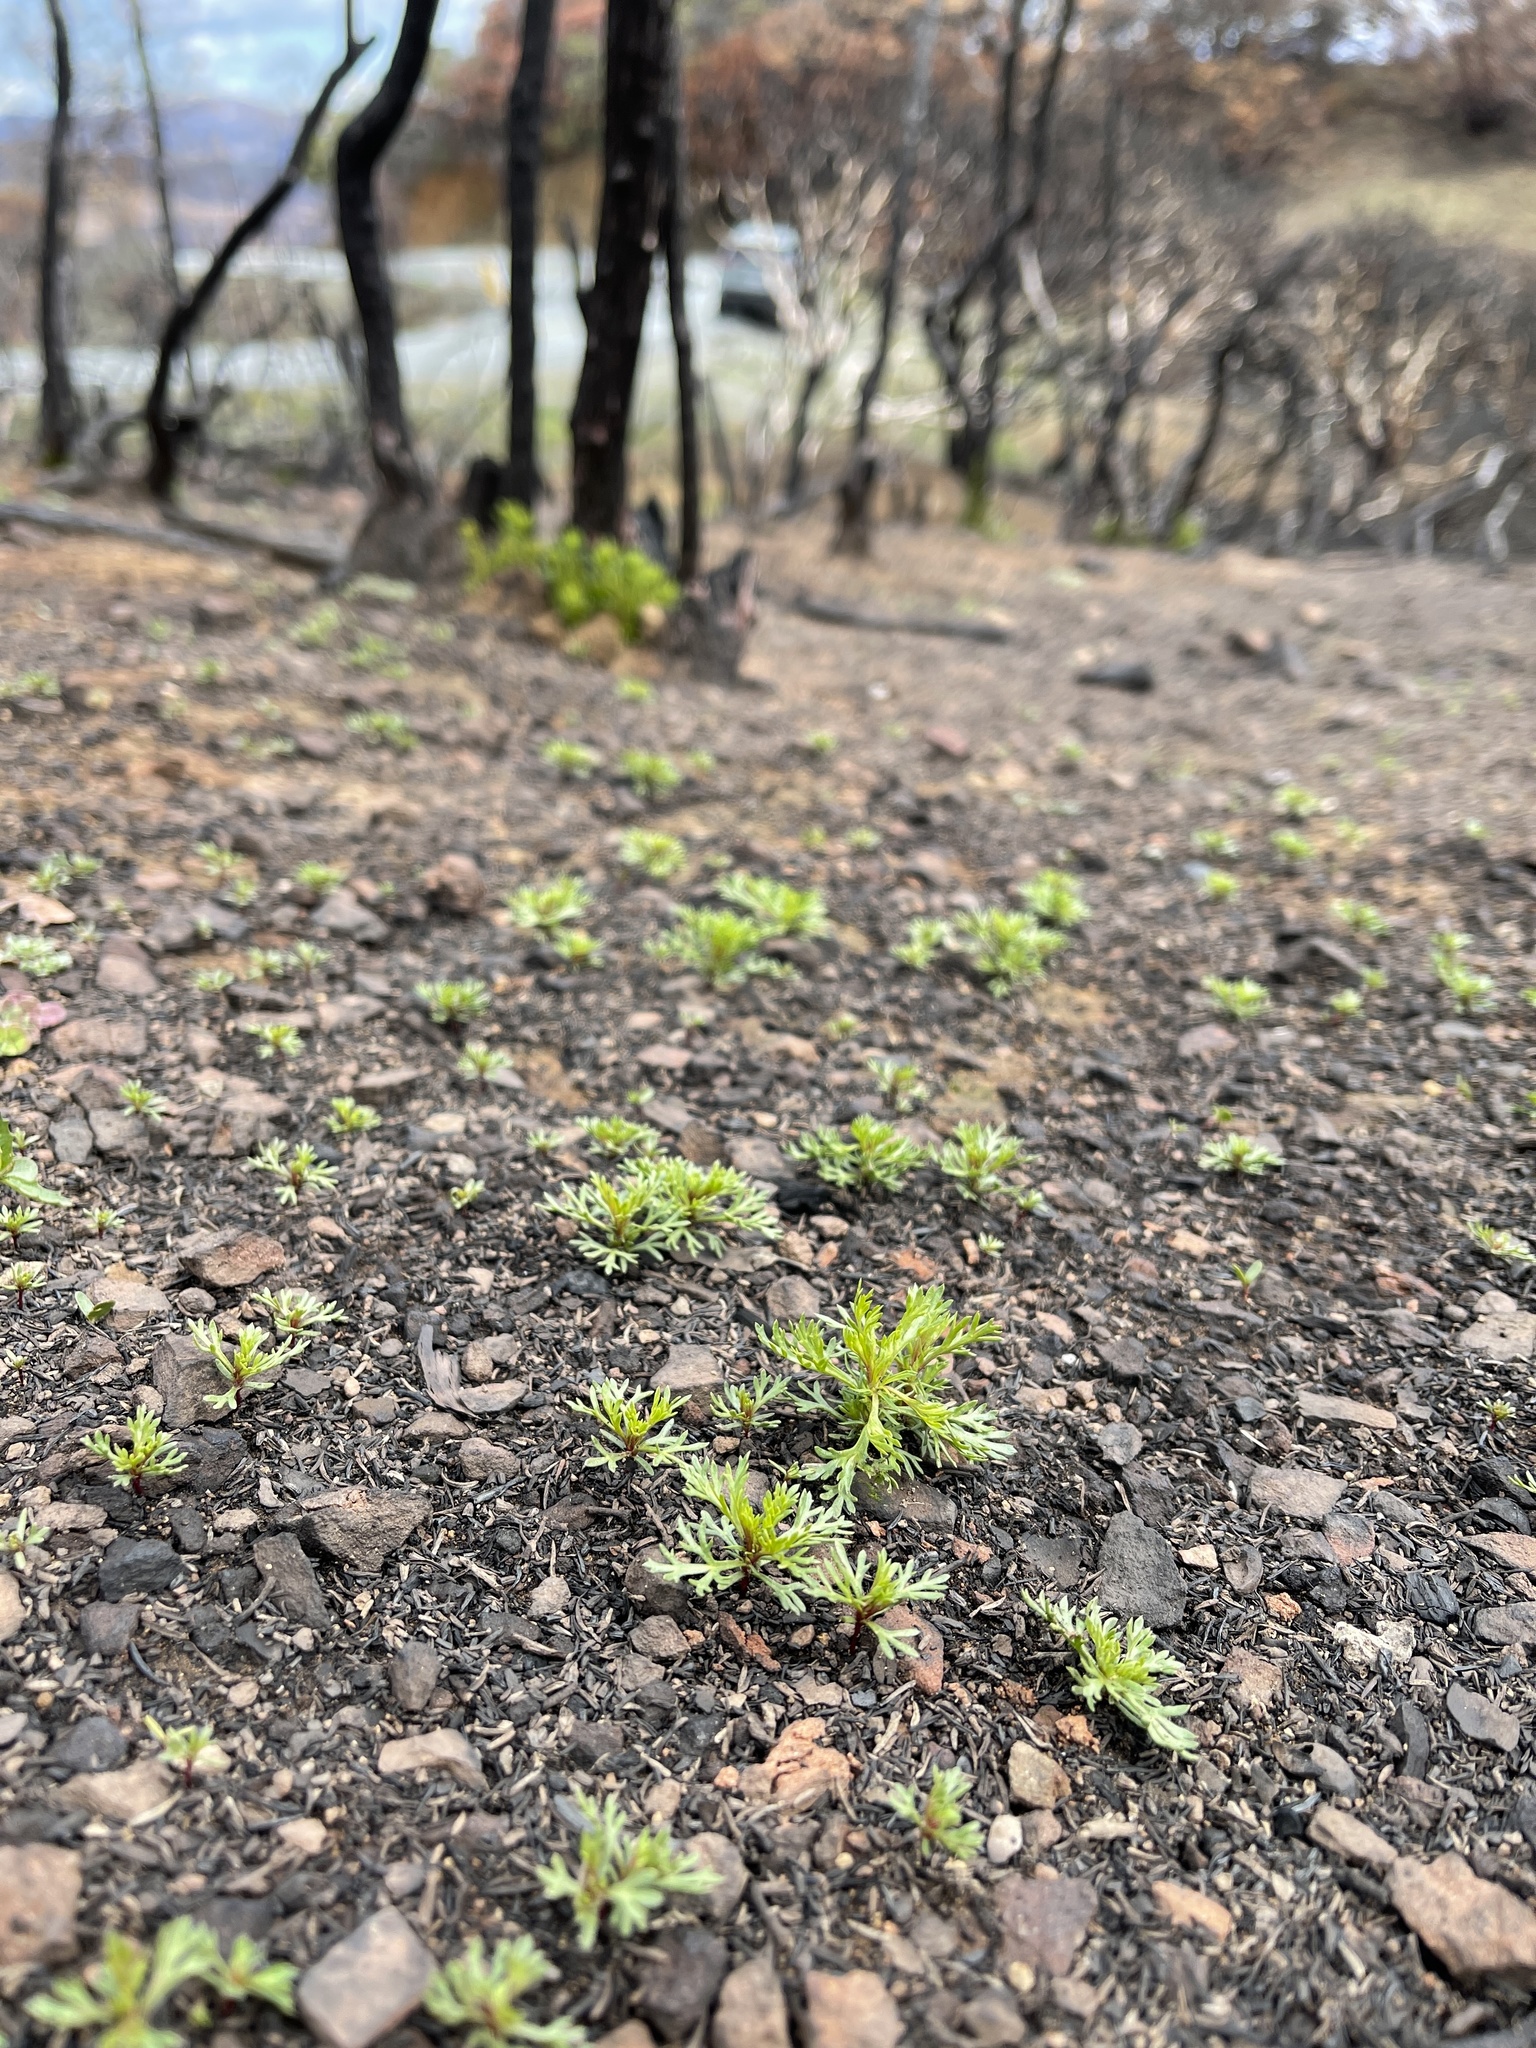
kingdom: Plantae
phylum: Tracheophyta
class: Magnoliopsida
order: Rosales
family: Rosaceae
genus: Adenostoma
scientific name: Adenostoma fasciculatum
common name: Chamise
